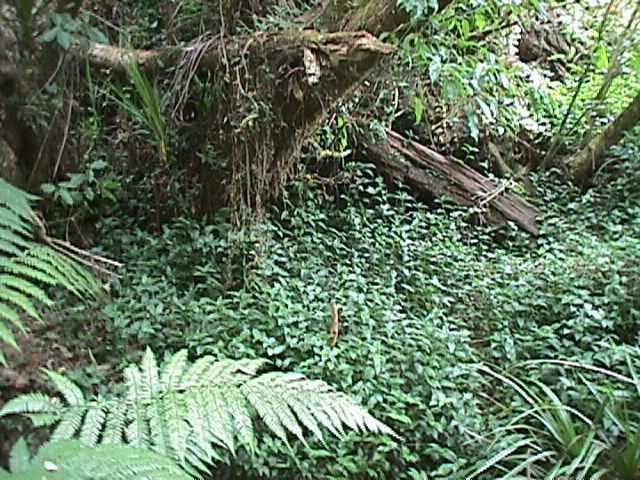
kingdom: Plantae
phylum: Tracheophyta
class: Liliopsida
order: Commelinales
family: Commelinaceae
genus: Tradescantia
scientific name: Tradescantia fluminensis
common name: Wandering-jew
